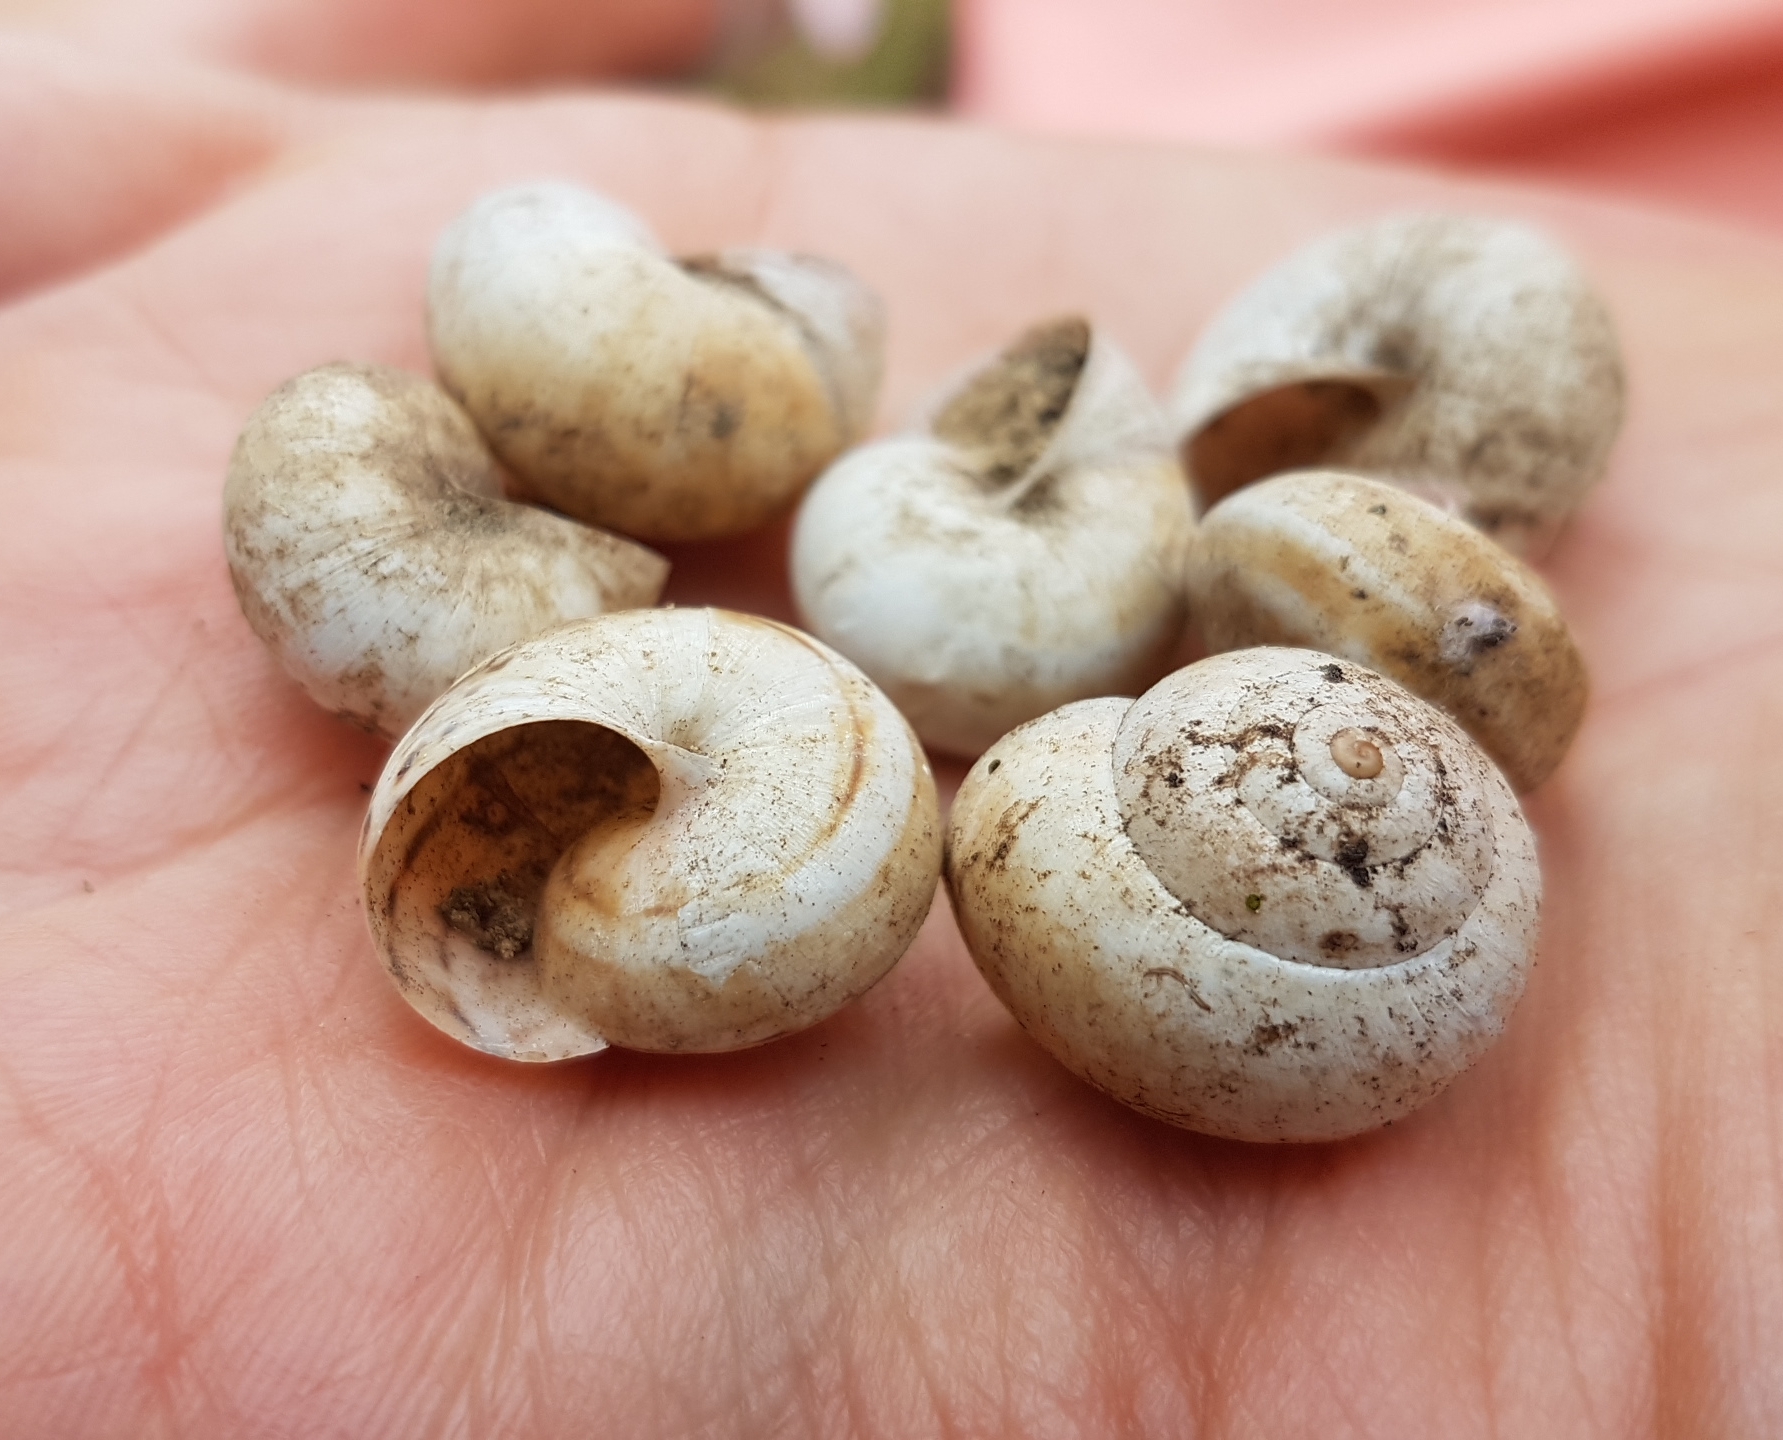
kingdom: Animalia
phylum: Mollusca
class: Gastropoda
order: Stylommatophora
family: Helicidae
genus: Theba
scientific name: Theba pisana
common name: White snail
